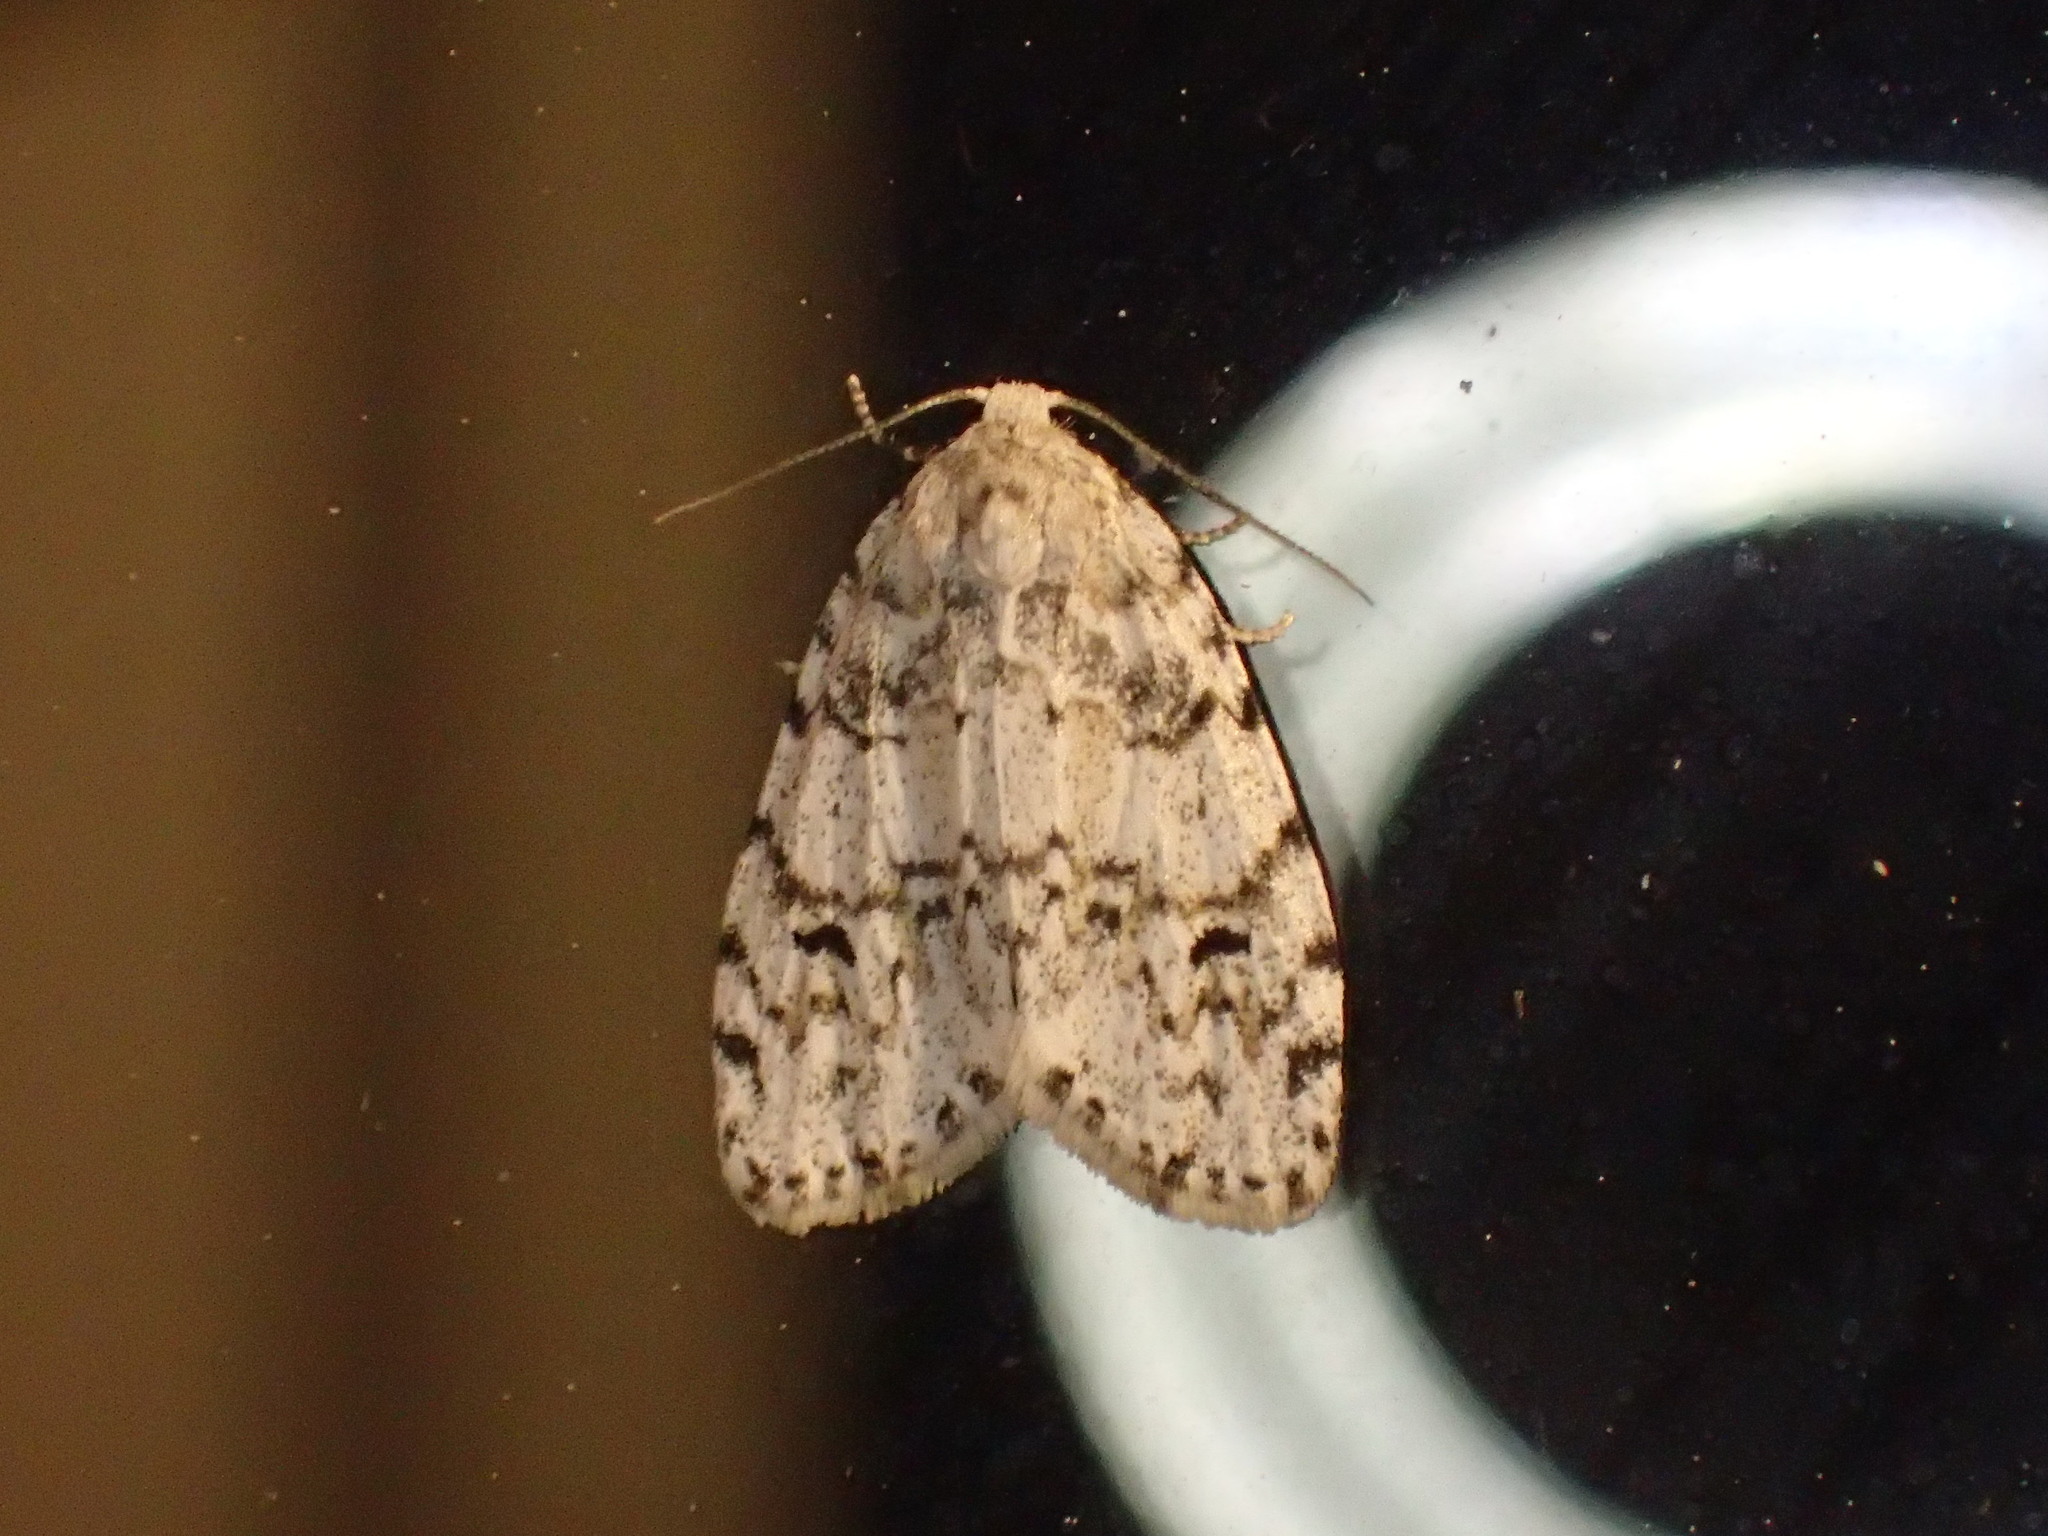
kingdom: Animalia
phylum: Arthropoda
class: Insecta
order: Lepidoptera
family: Erebidae
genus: Clemensia
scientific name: Clemensia albata
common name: Little white lichen moth
